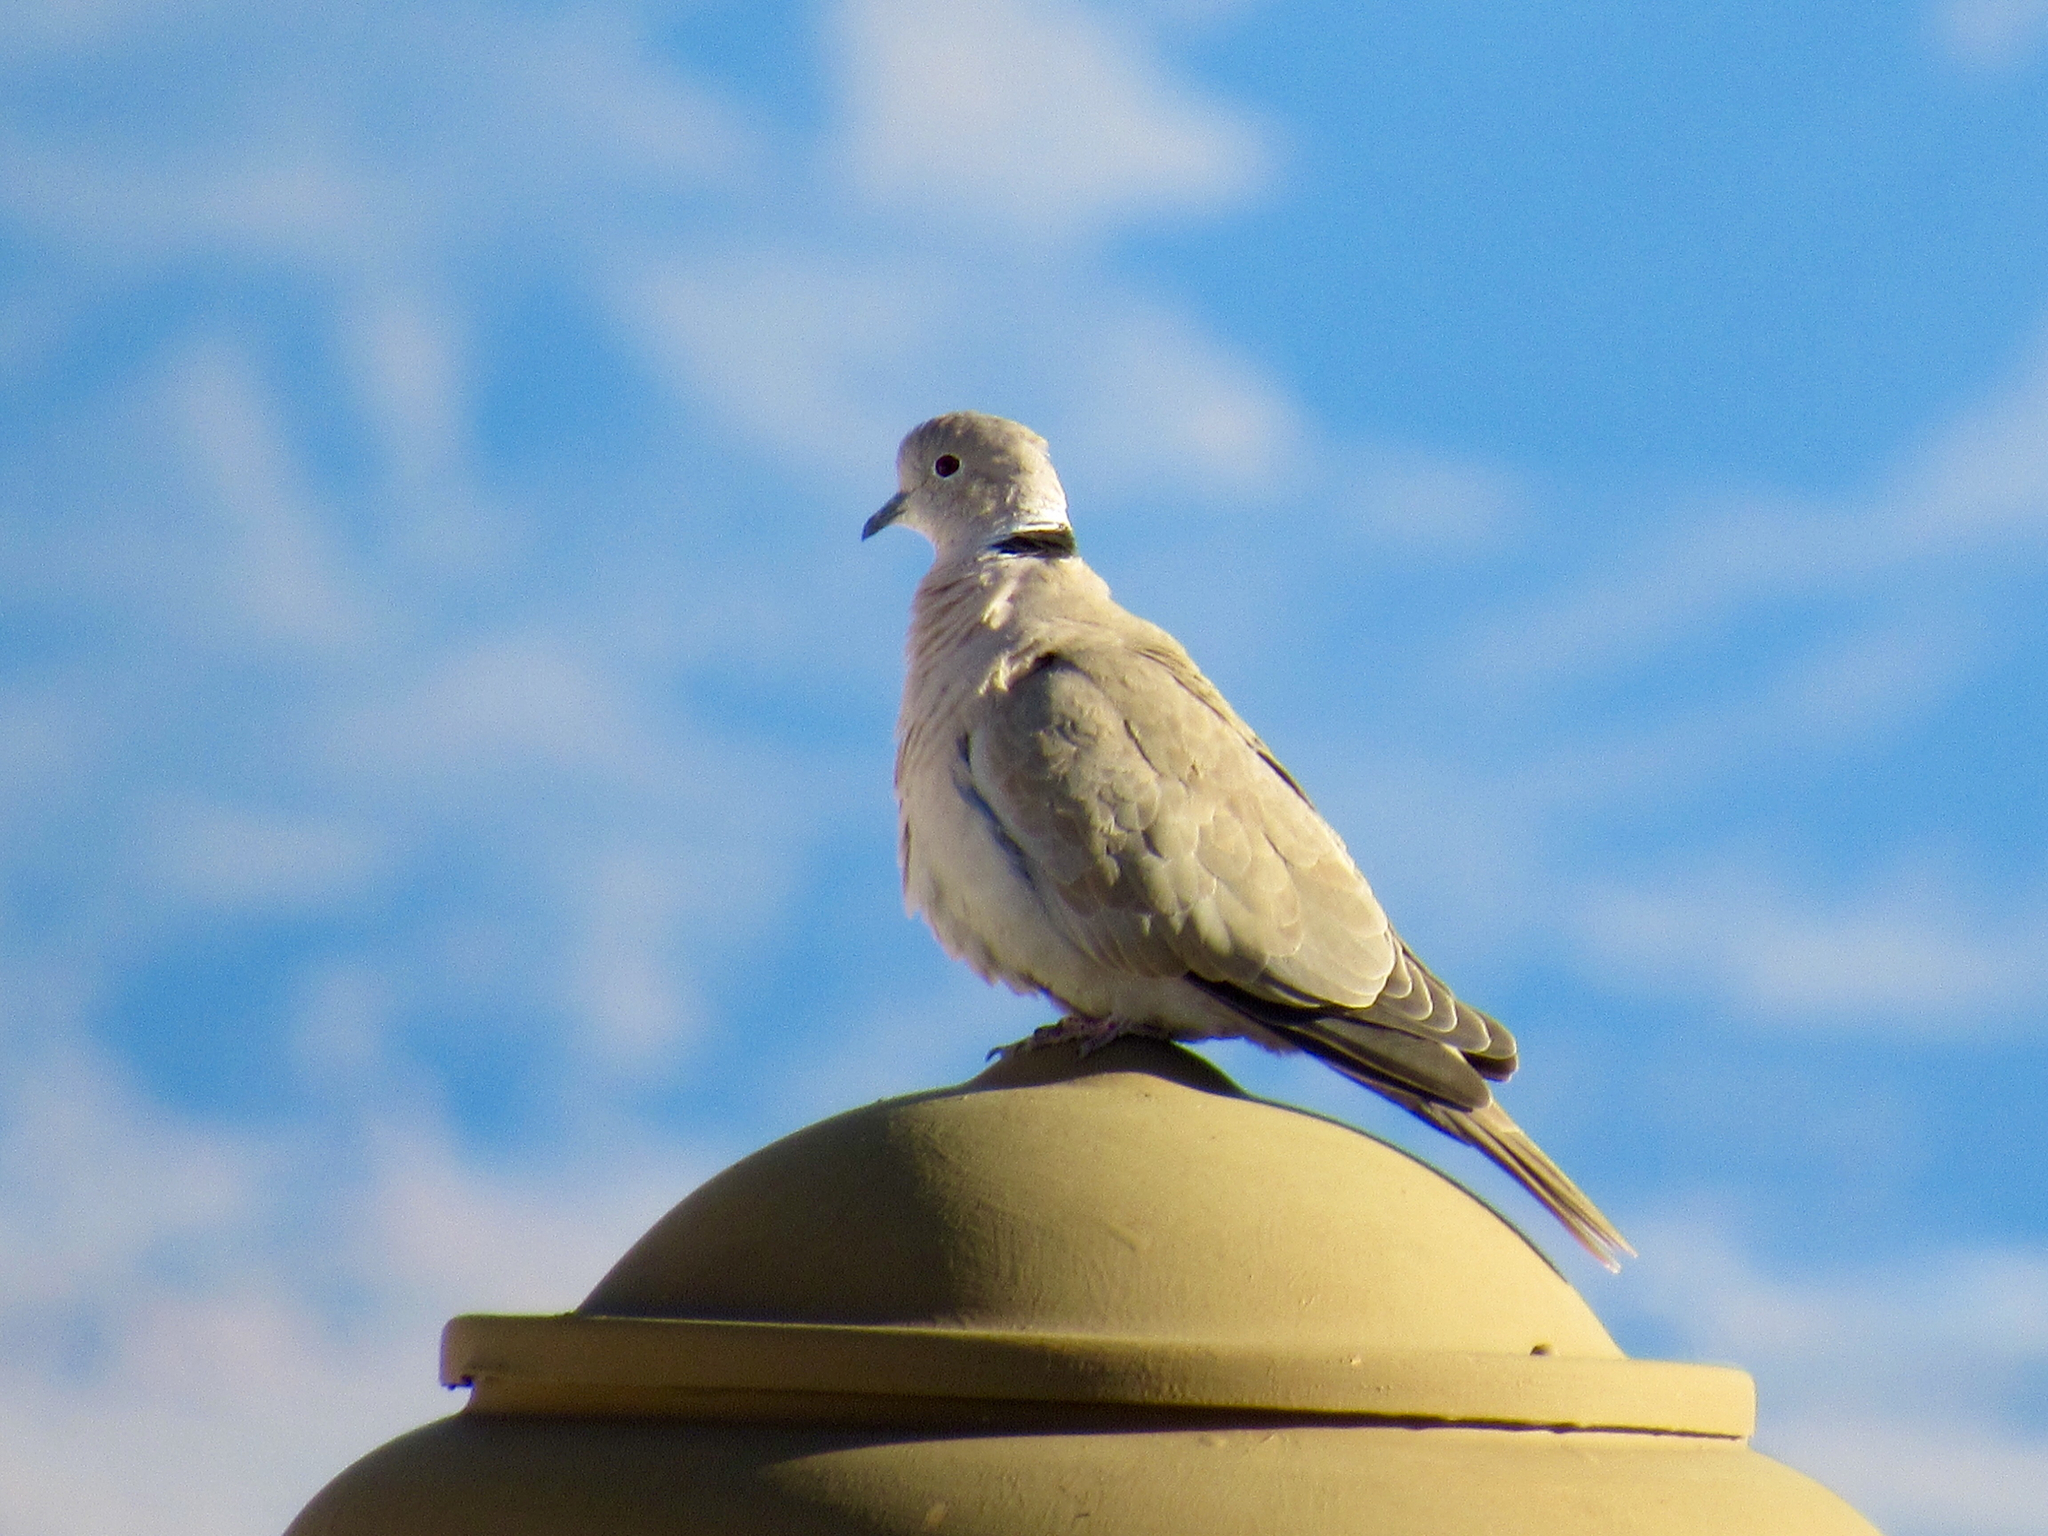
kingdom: Animalia
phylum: Chordata
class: Aves
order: Columbiformes
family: Columbidae
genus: Streptopelia
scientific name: Streptopelia decaocto
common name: Eurasian collared dove
